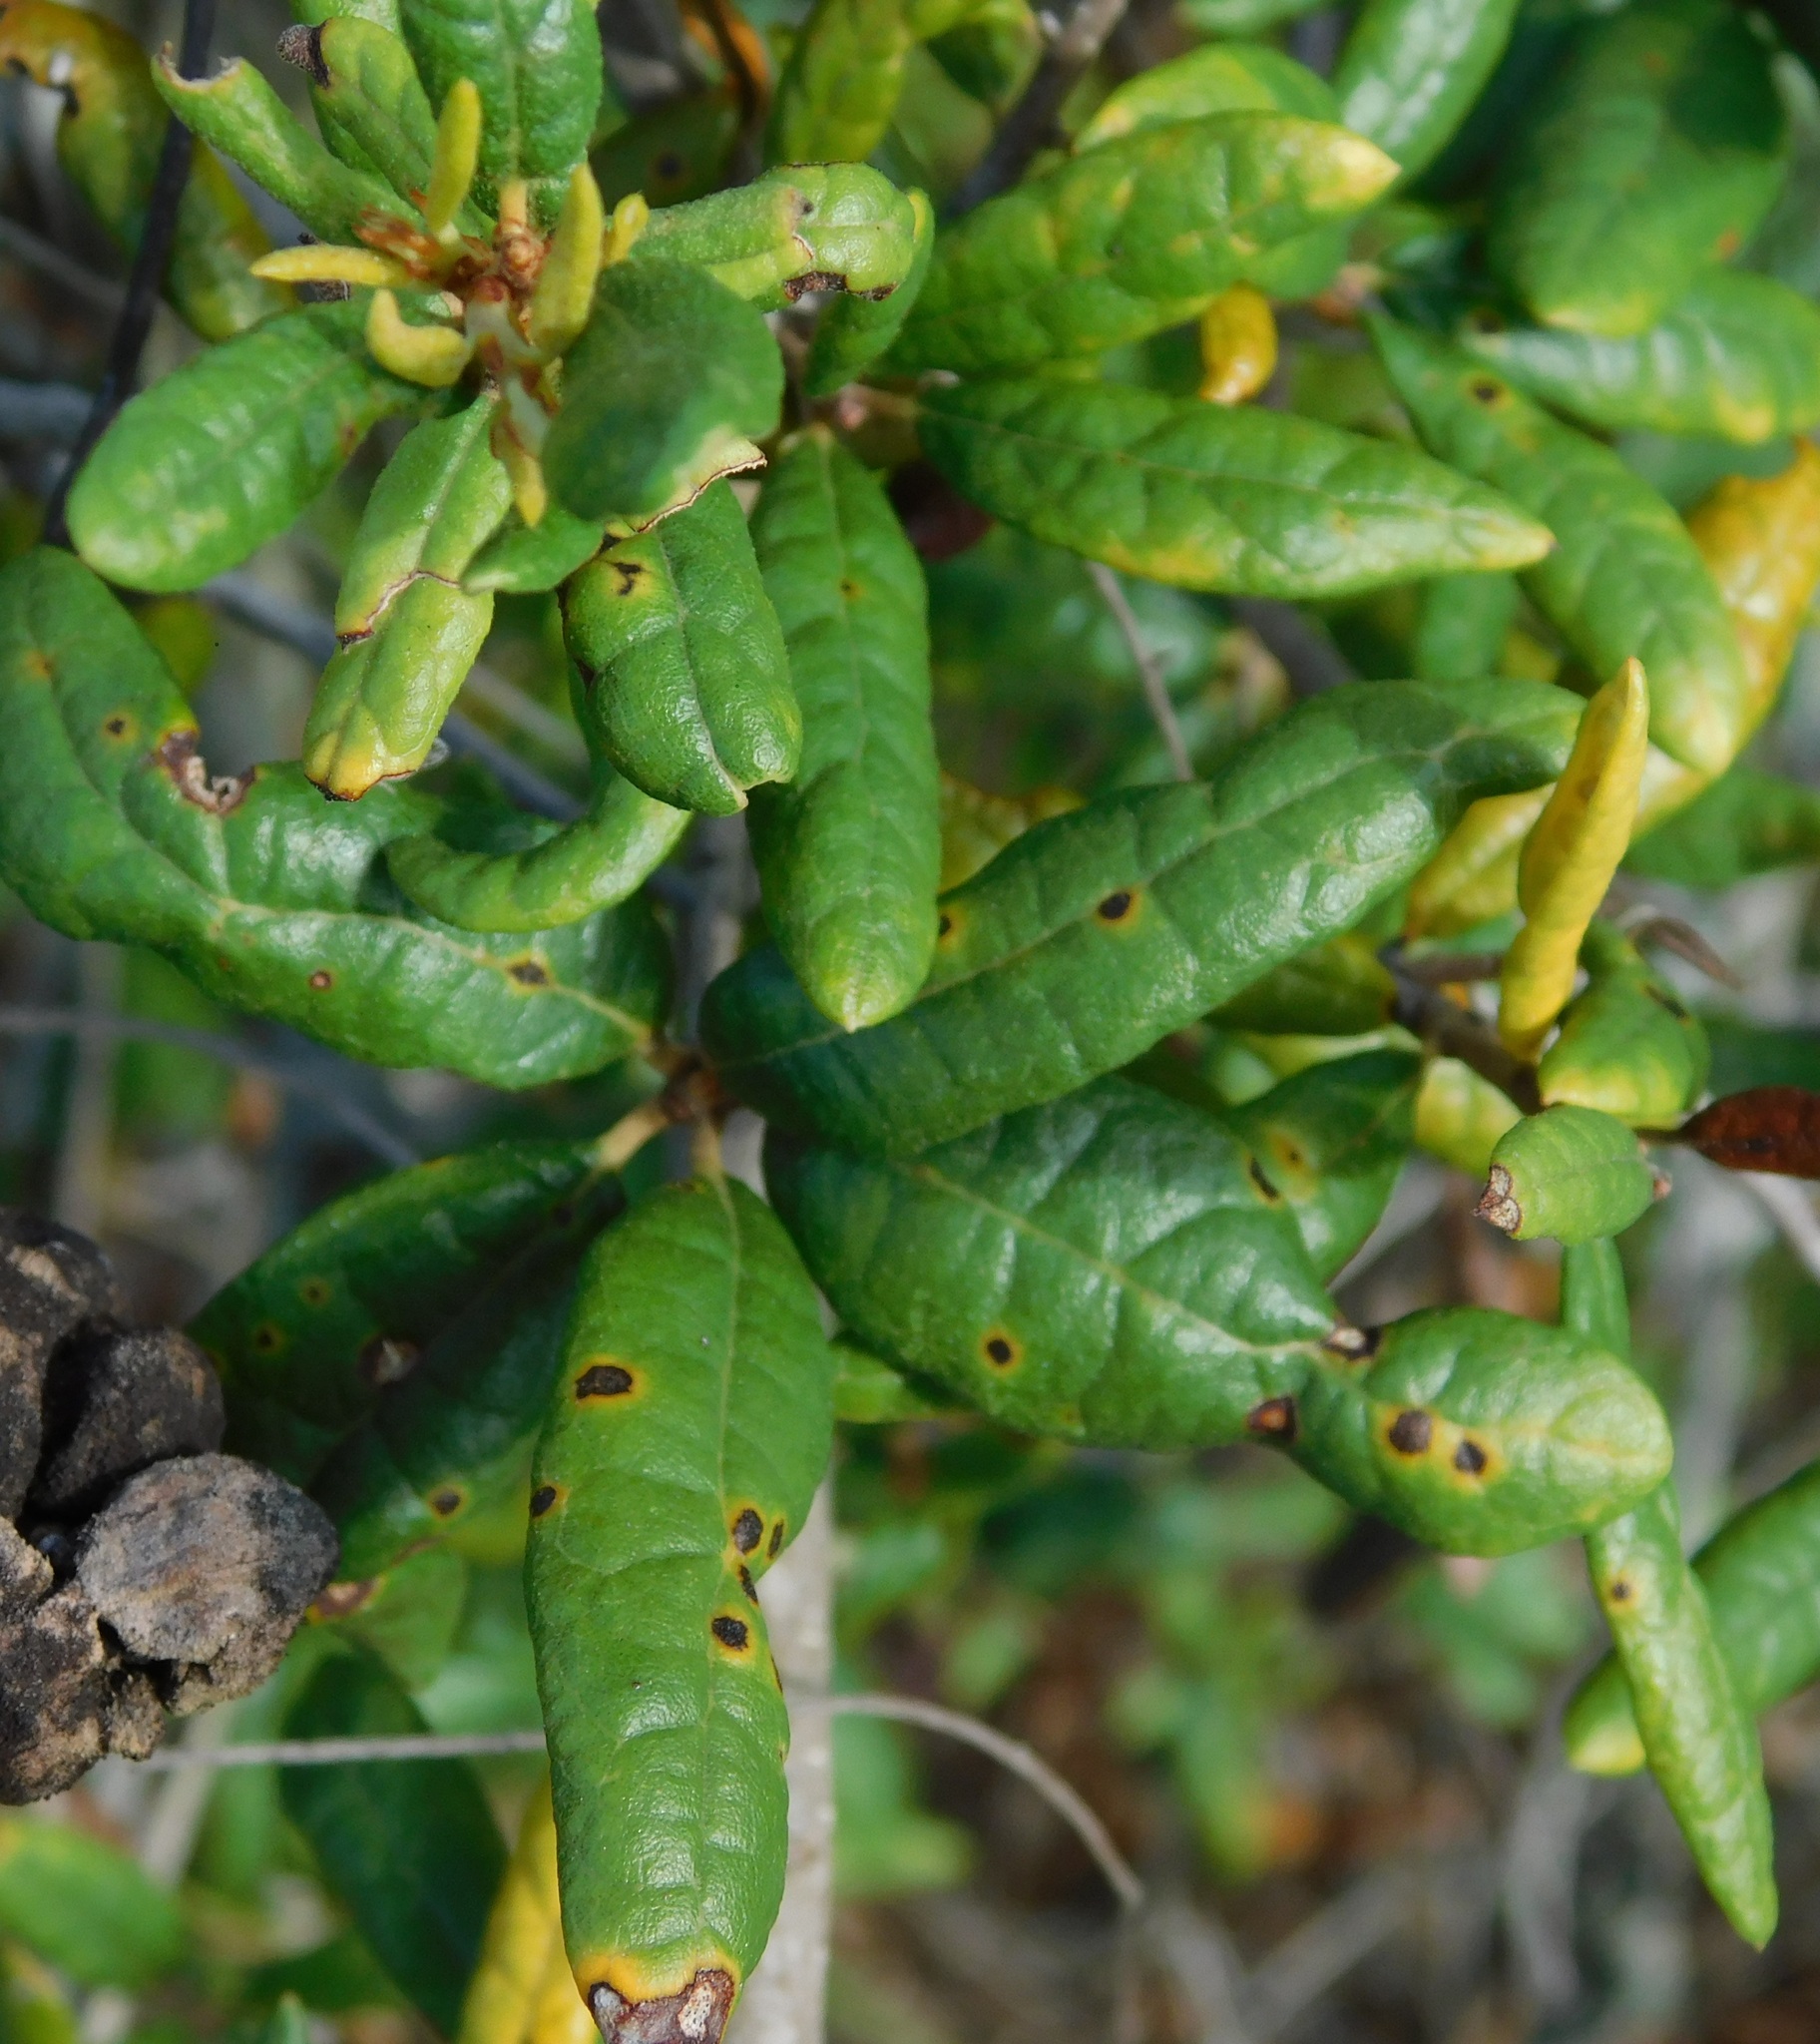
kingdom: Plantae
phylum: Tracheophyta
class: Magnoliopsida
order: Fagales
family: Fagaceae
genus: Quercus
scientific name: Quercus geminata
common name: Sand live oak
